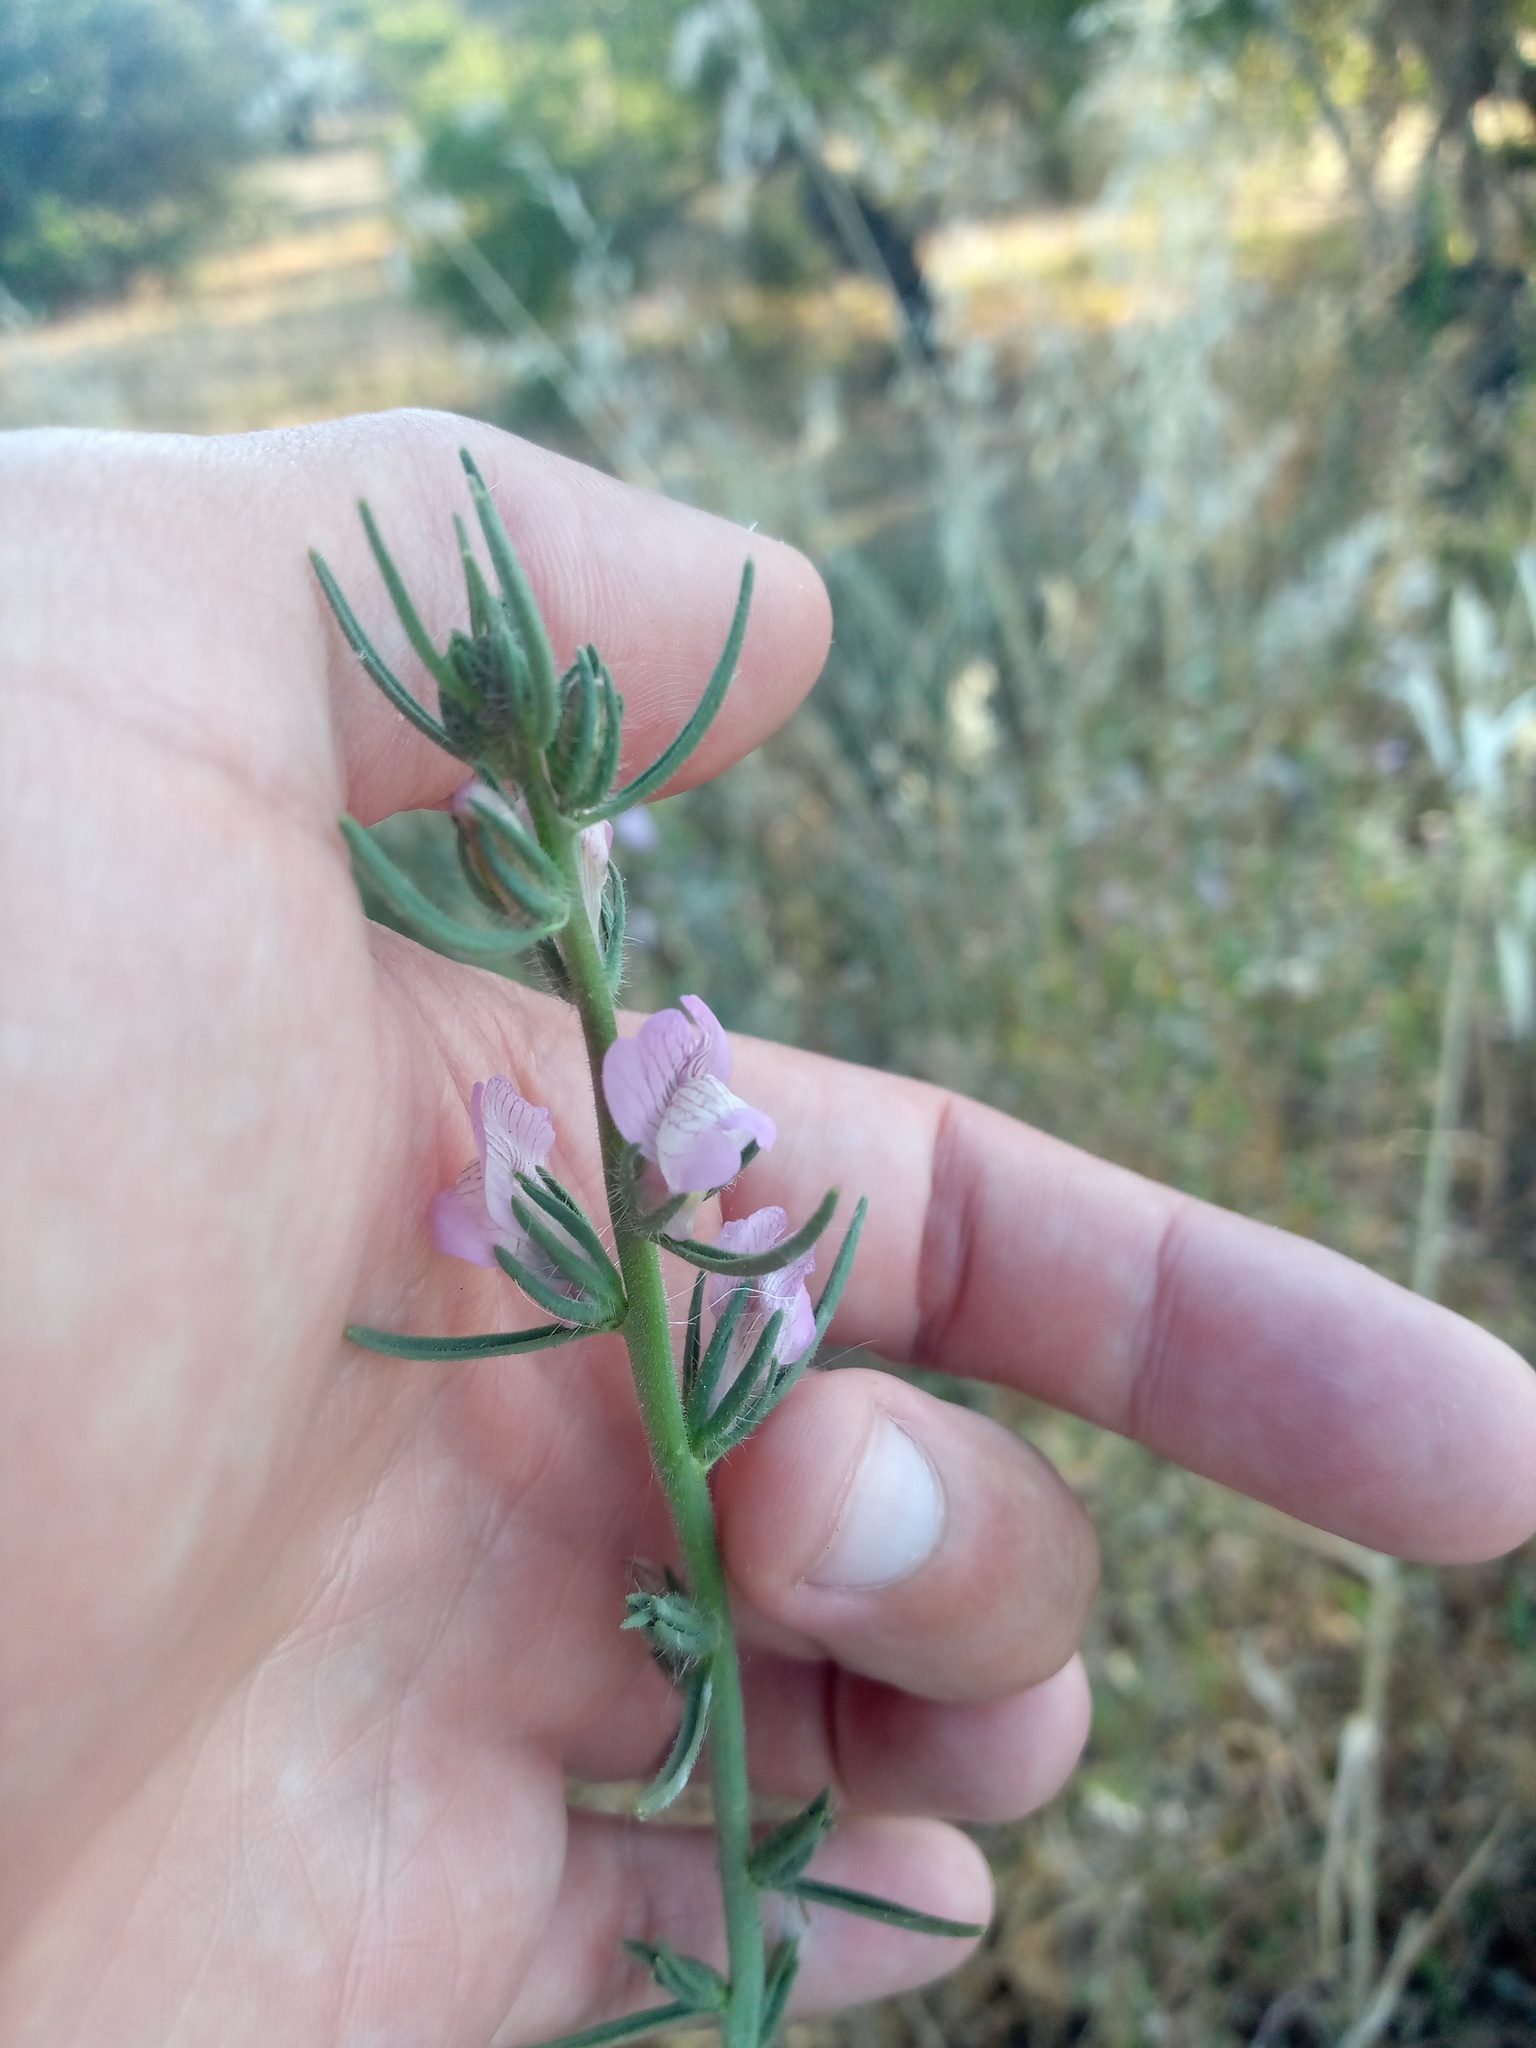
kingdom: Plantae
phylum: Tracheophyta
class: Magnoliopsida
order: Lamiales
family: Plantaginaceae
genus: Misopates
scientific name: Misopates orontium
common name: Weasel's-snout
